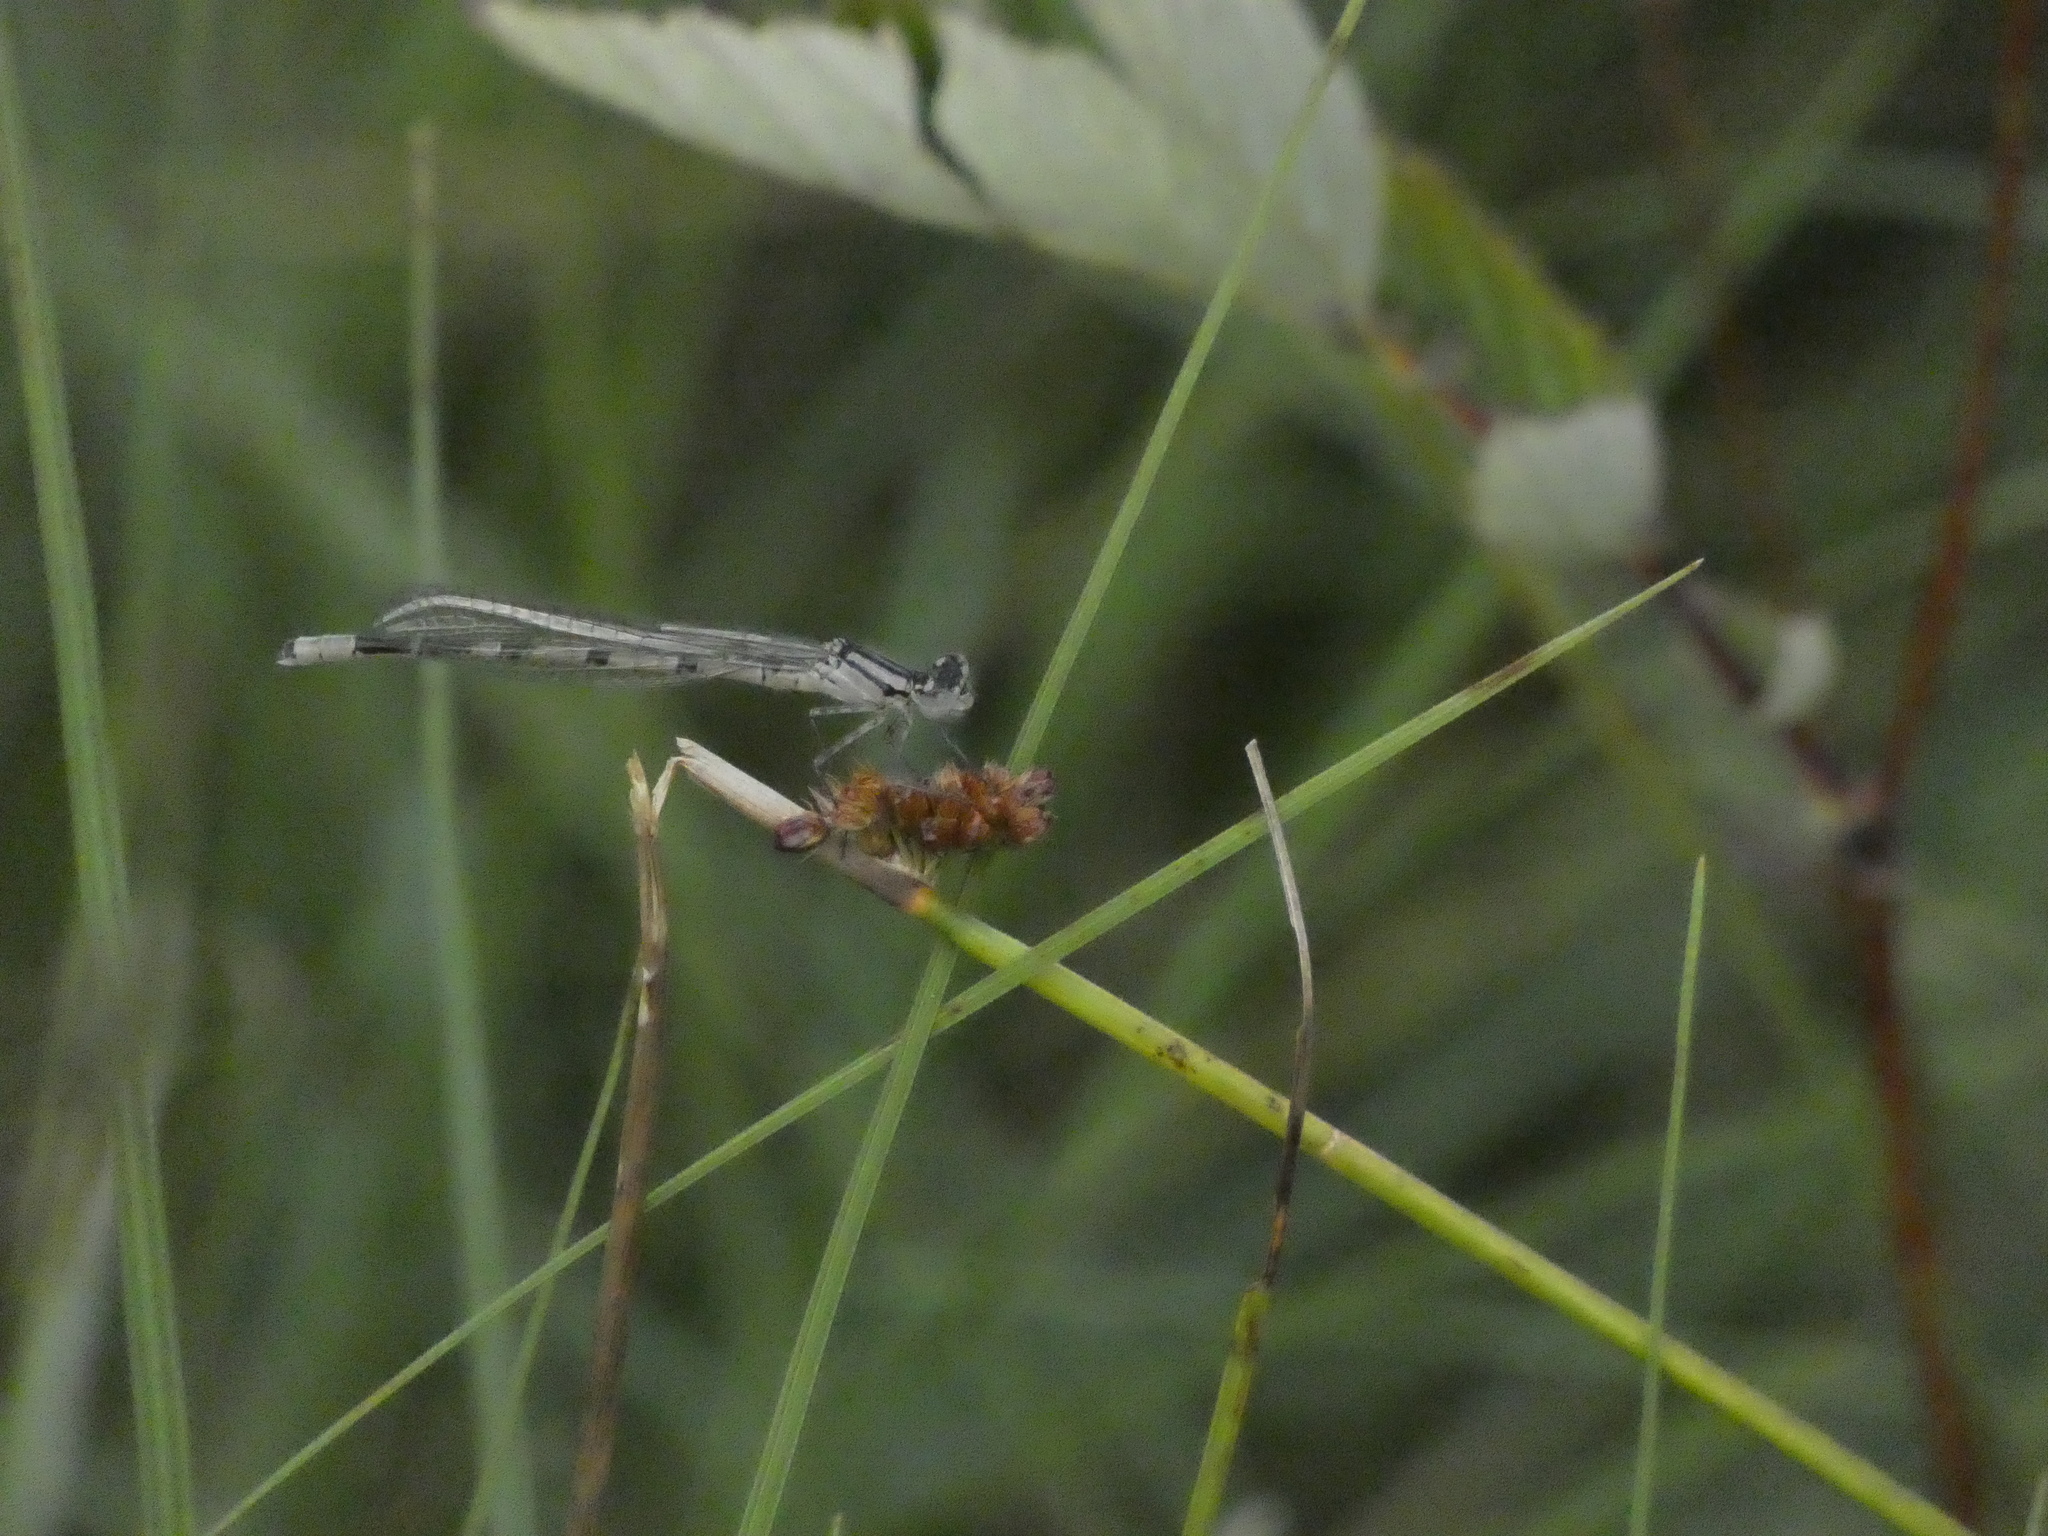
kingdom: Animalia
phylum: Arthropoda
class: Insecta
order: Odonata
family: Coenagrionidae
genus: Enallagma
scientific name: Enallagma cyathigerum
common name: Common blue damselfly
